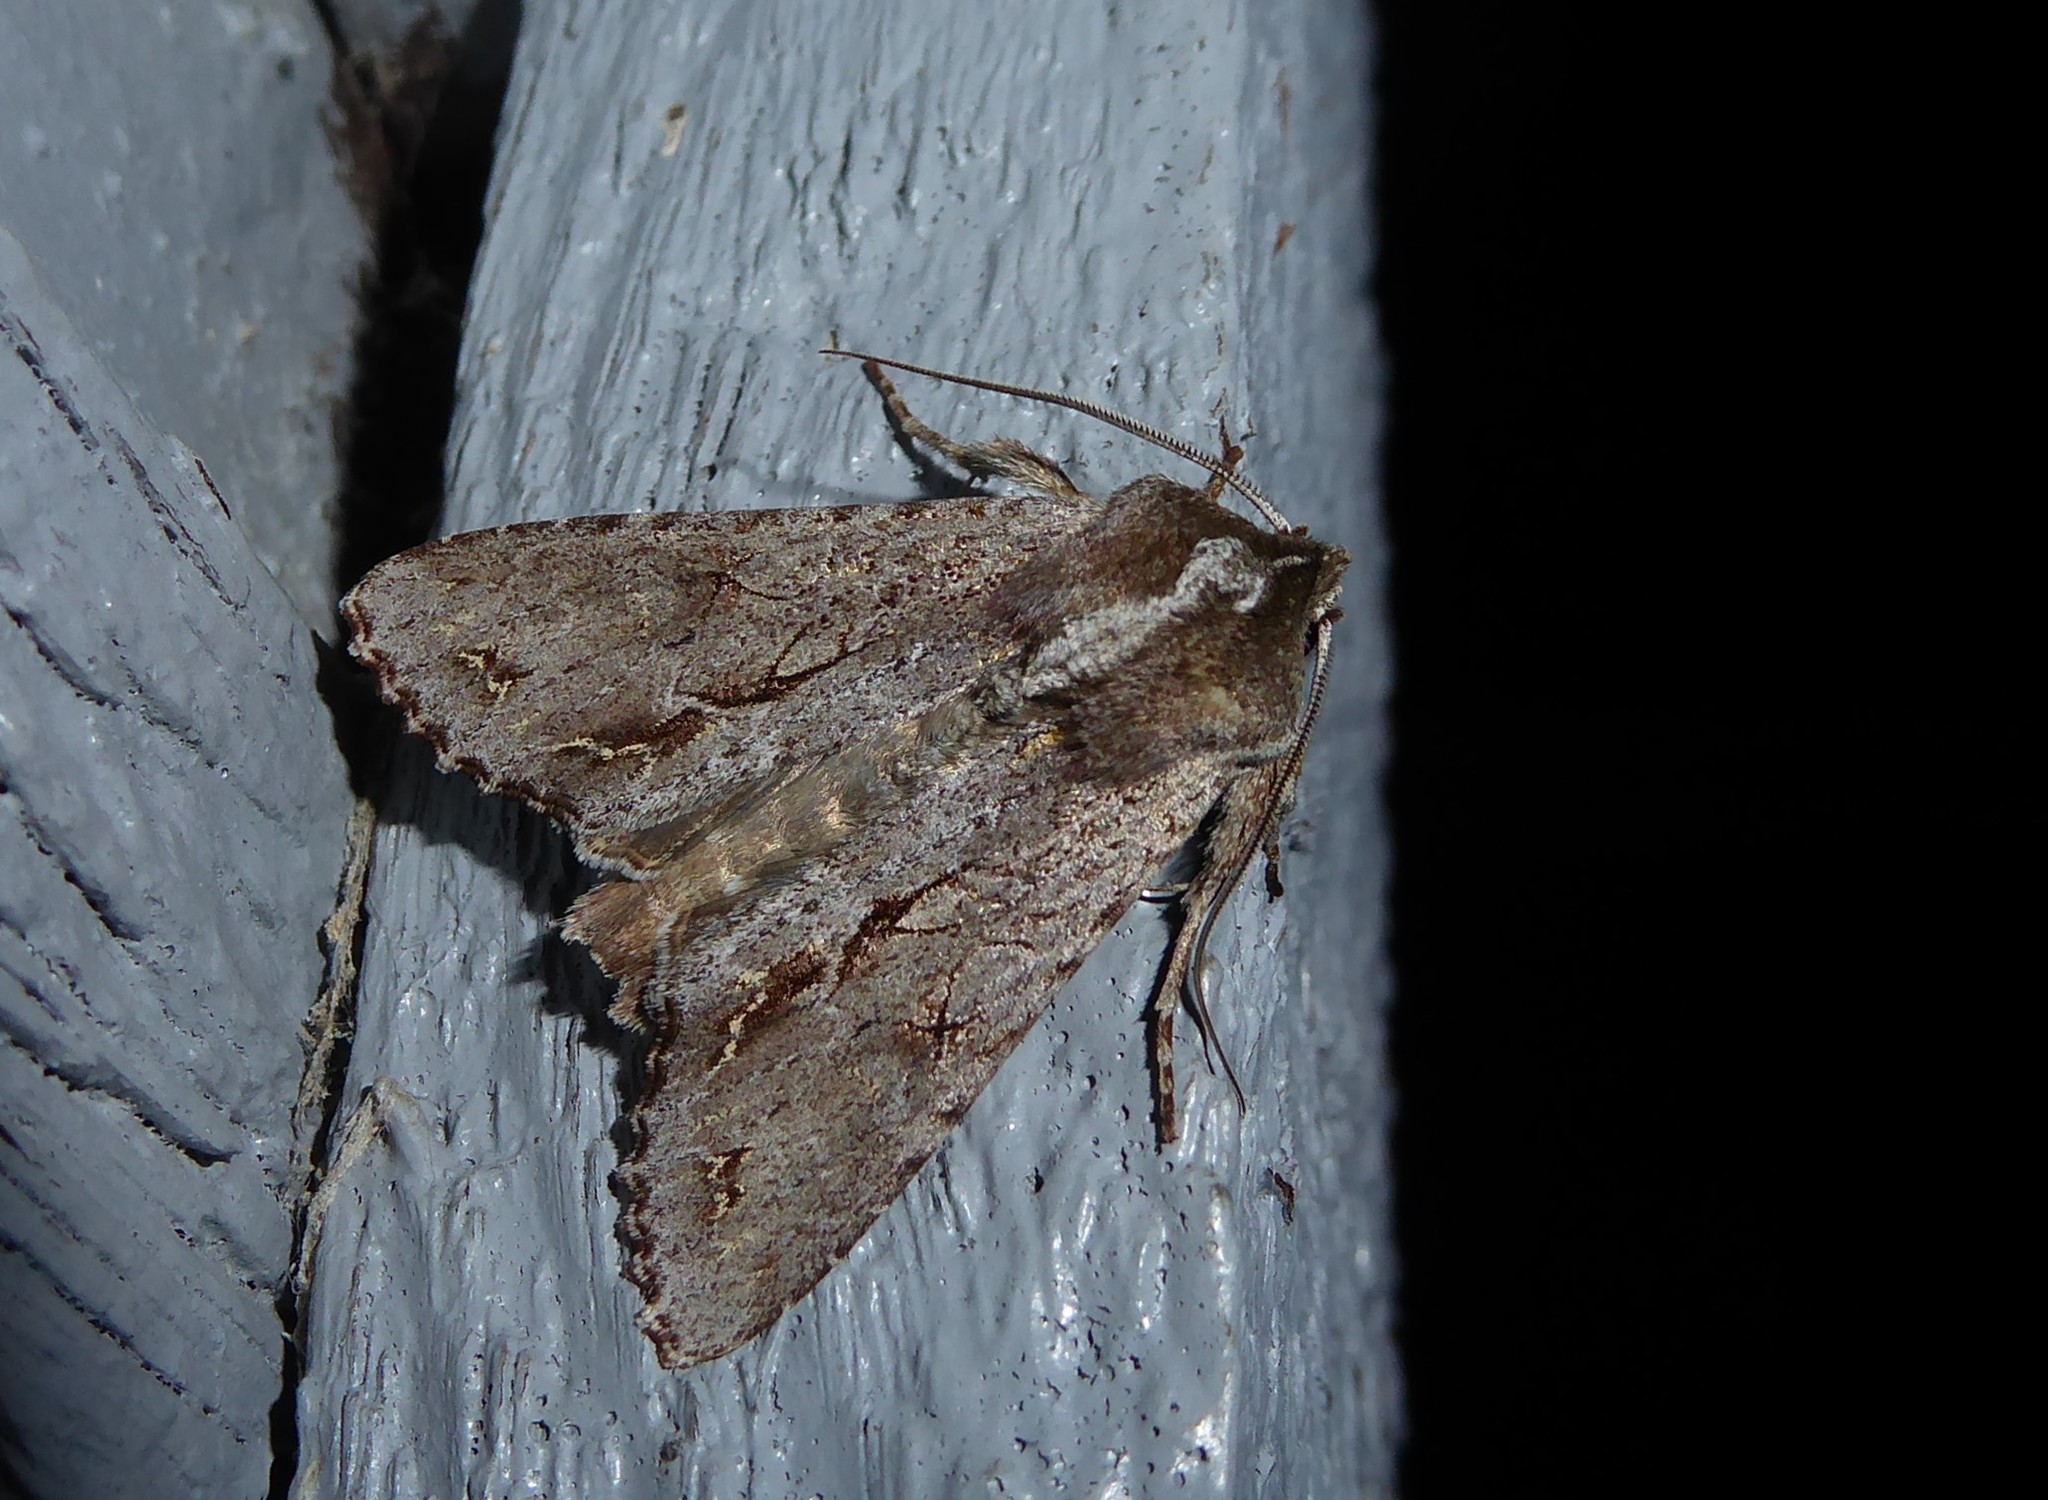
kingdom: Animalia
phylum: Arthropoda
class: Insecta
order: Lepidoptera
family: Noctuidae
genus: Ichneutica
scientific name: Ichneutica
